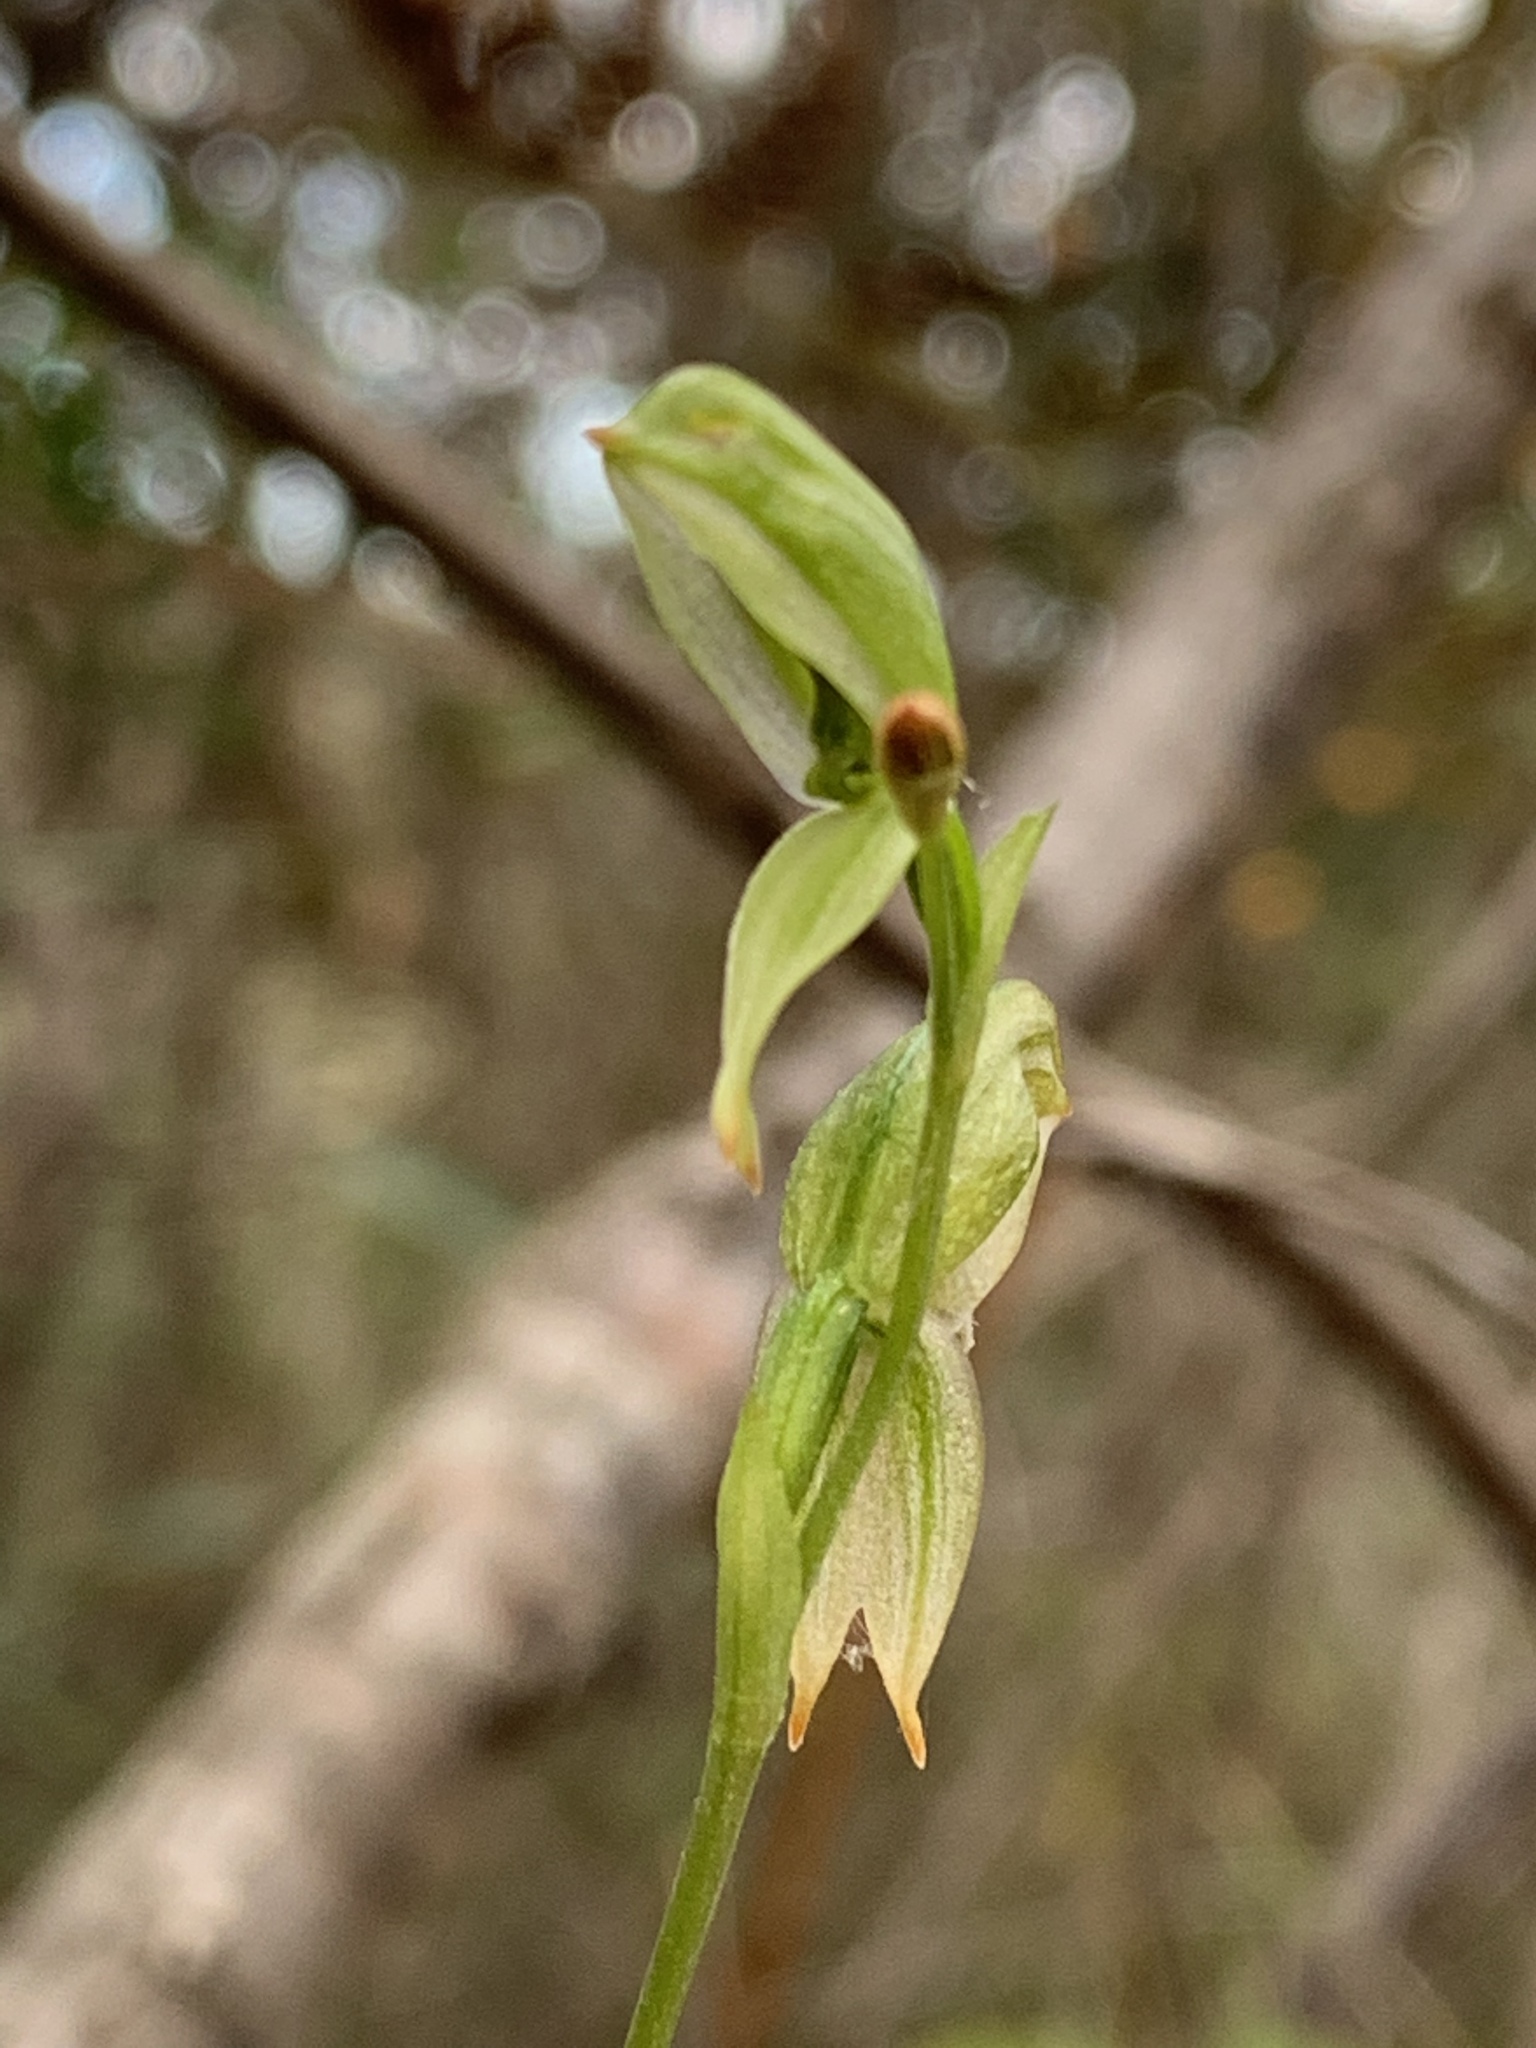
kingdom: Plantae
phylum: Tracheophyta
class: Liliopsida
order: Asparagales
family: Orchidaceae
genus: Pterostylis
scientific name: Pterostylis longifolia
